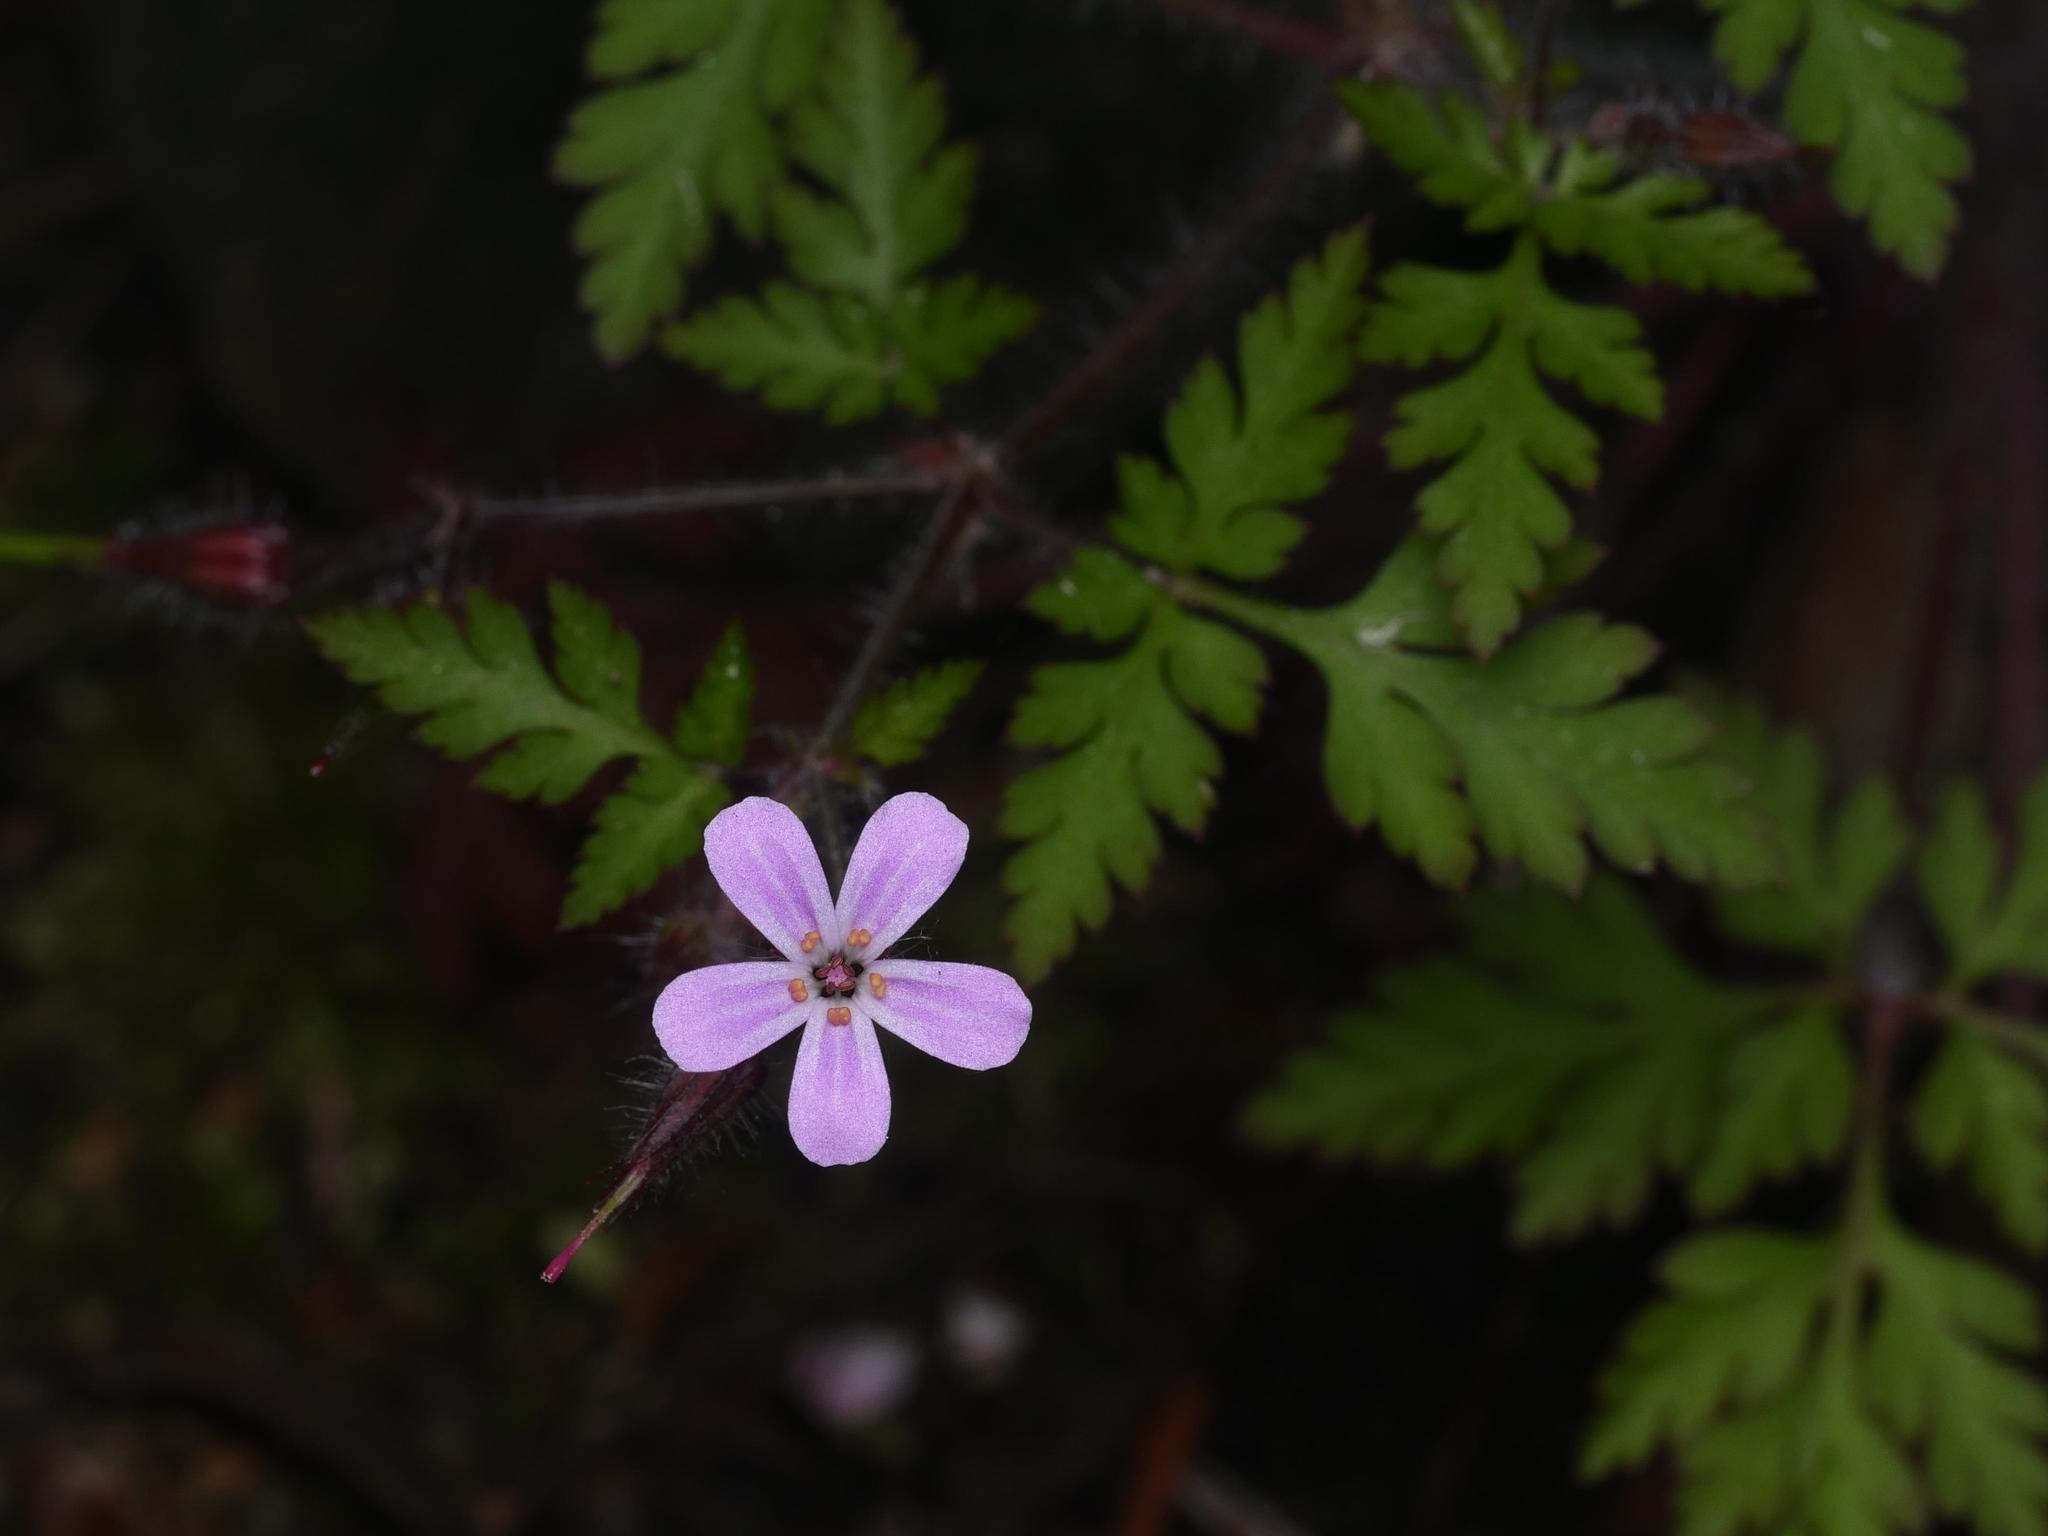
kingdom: Plantae
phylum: Tracheophyta
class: Magnoliopsida
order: Geraniales
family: Geraniaceae
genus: Geranium
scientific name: Geranium robertianum
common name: Herb-robert
